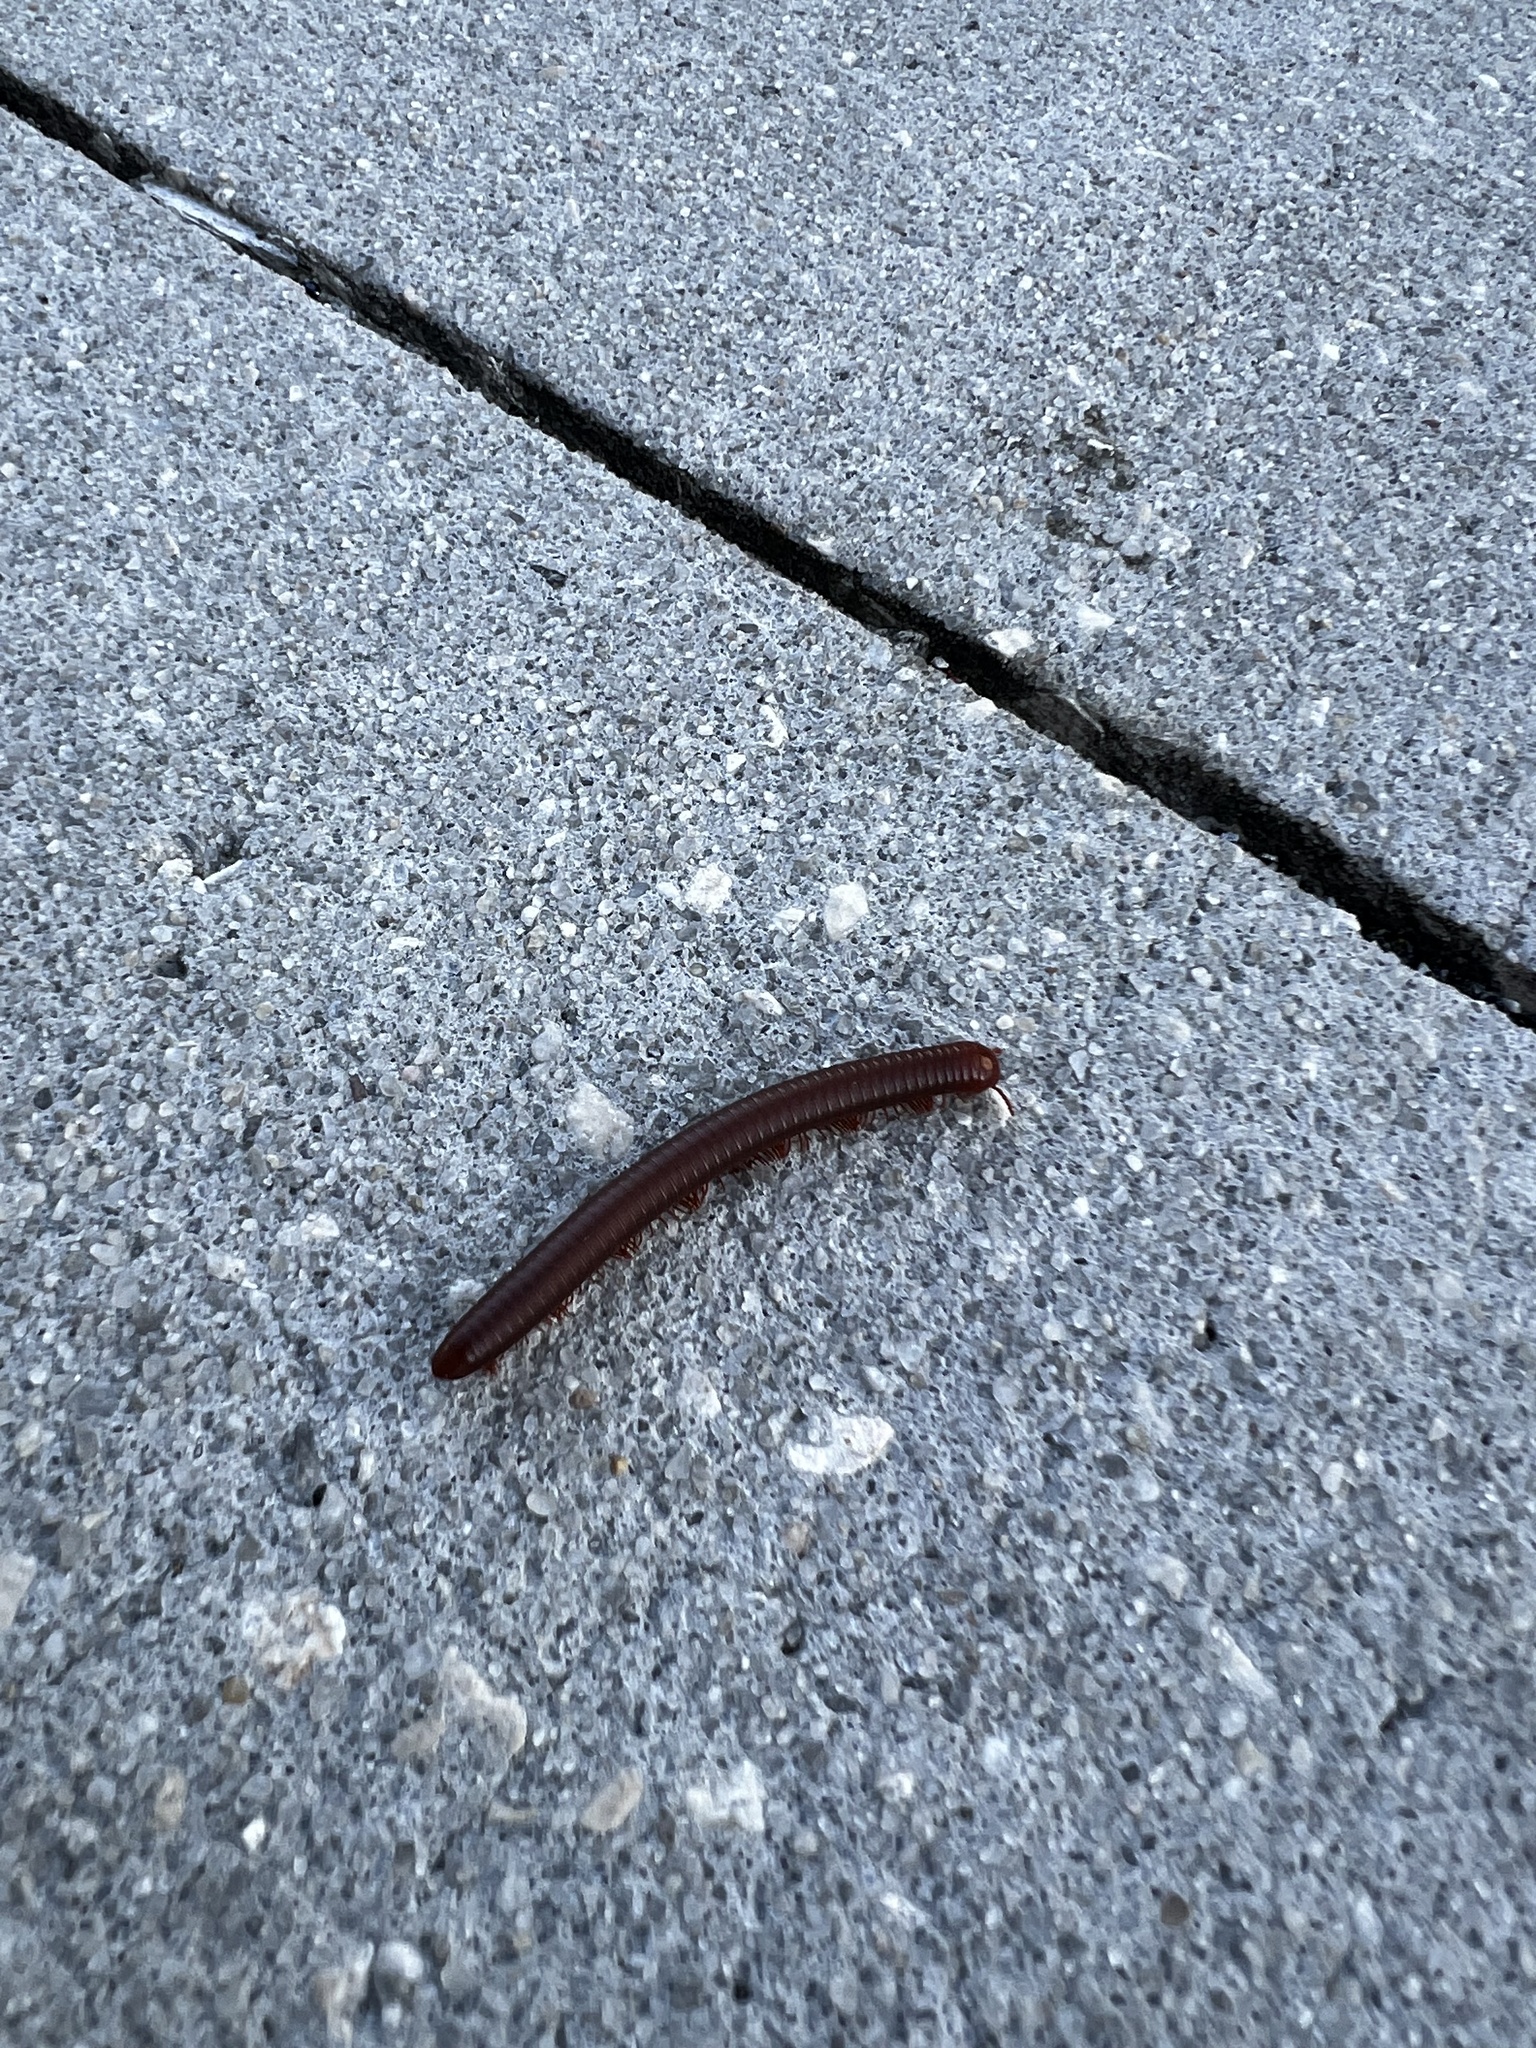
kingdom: Animalia
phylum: Arthropoda
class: Diplopoda
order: Spirobolida
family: Pachybolidae
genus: Trigoniulus
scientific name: Trigoniulus corallinus
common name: Millipede
